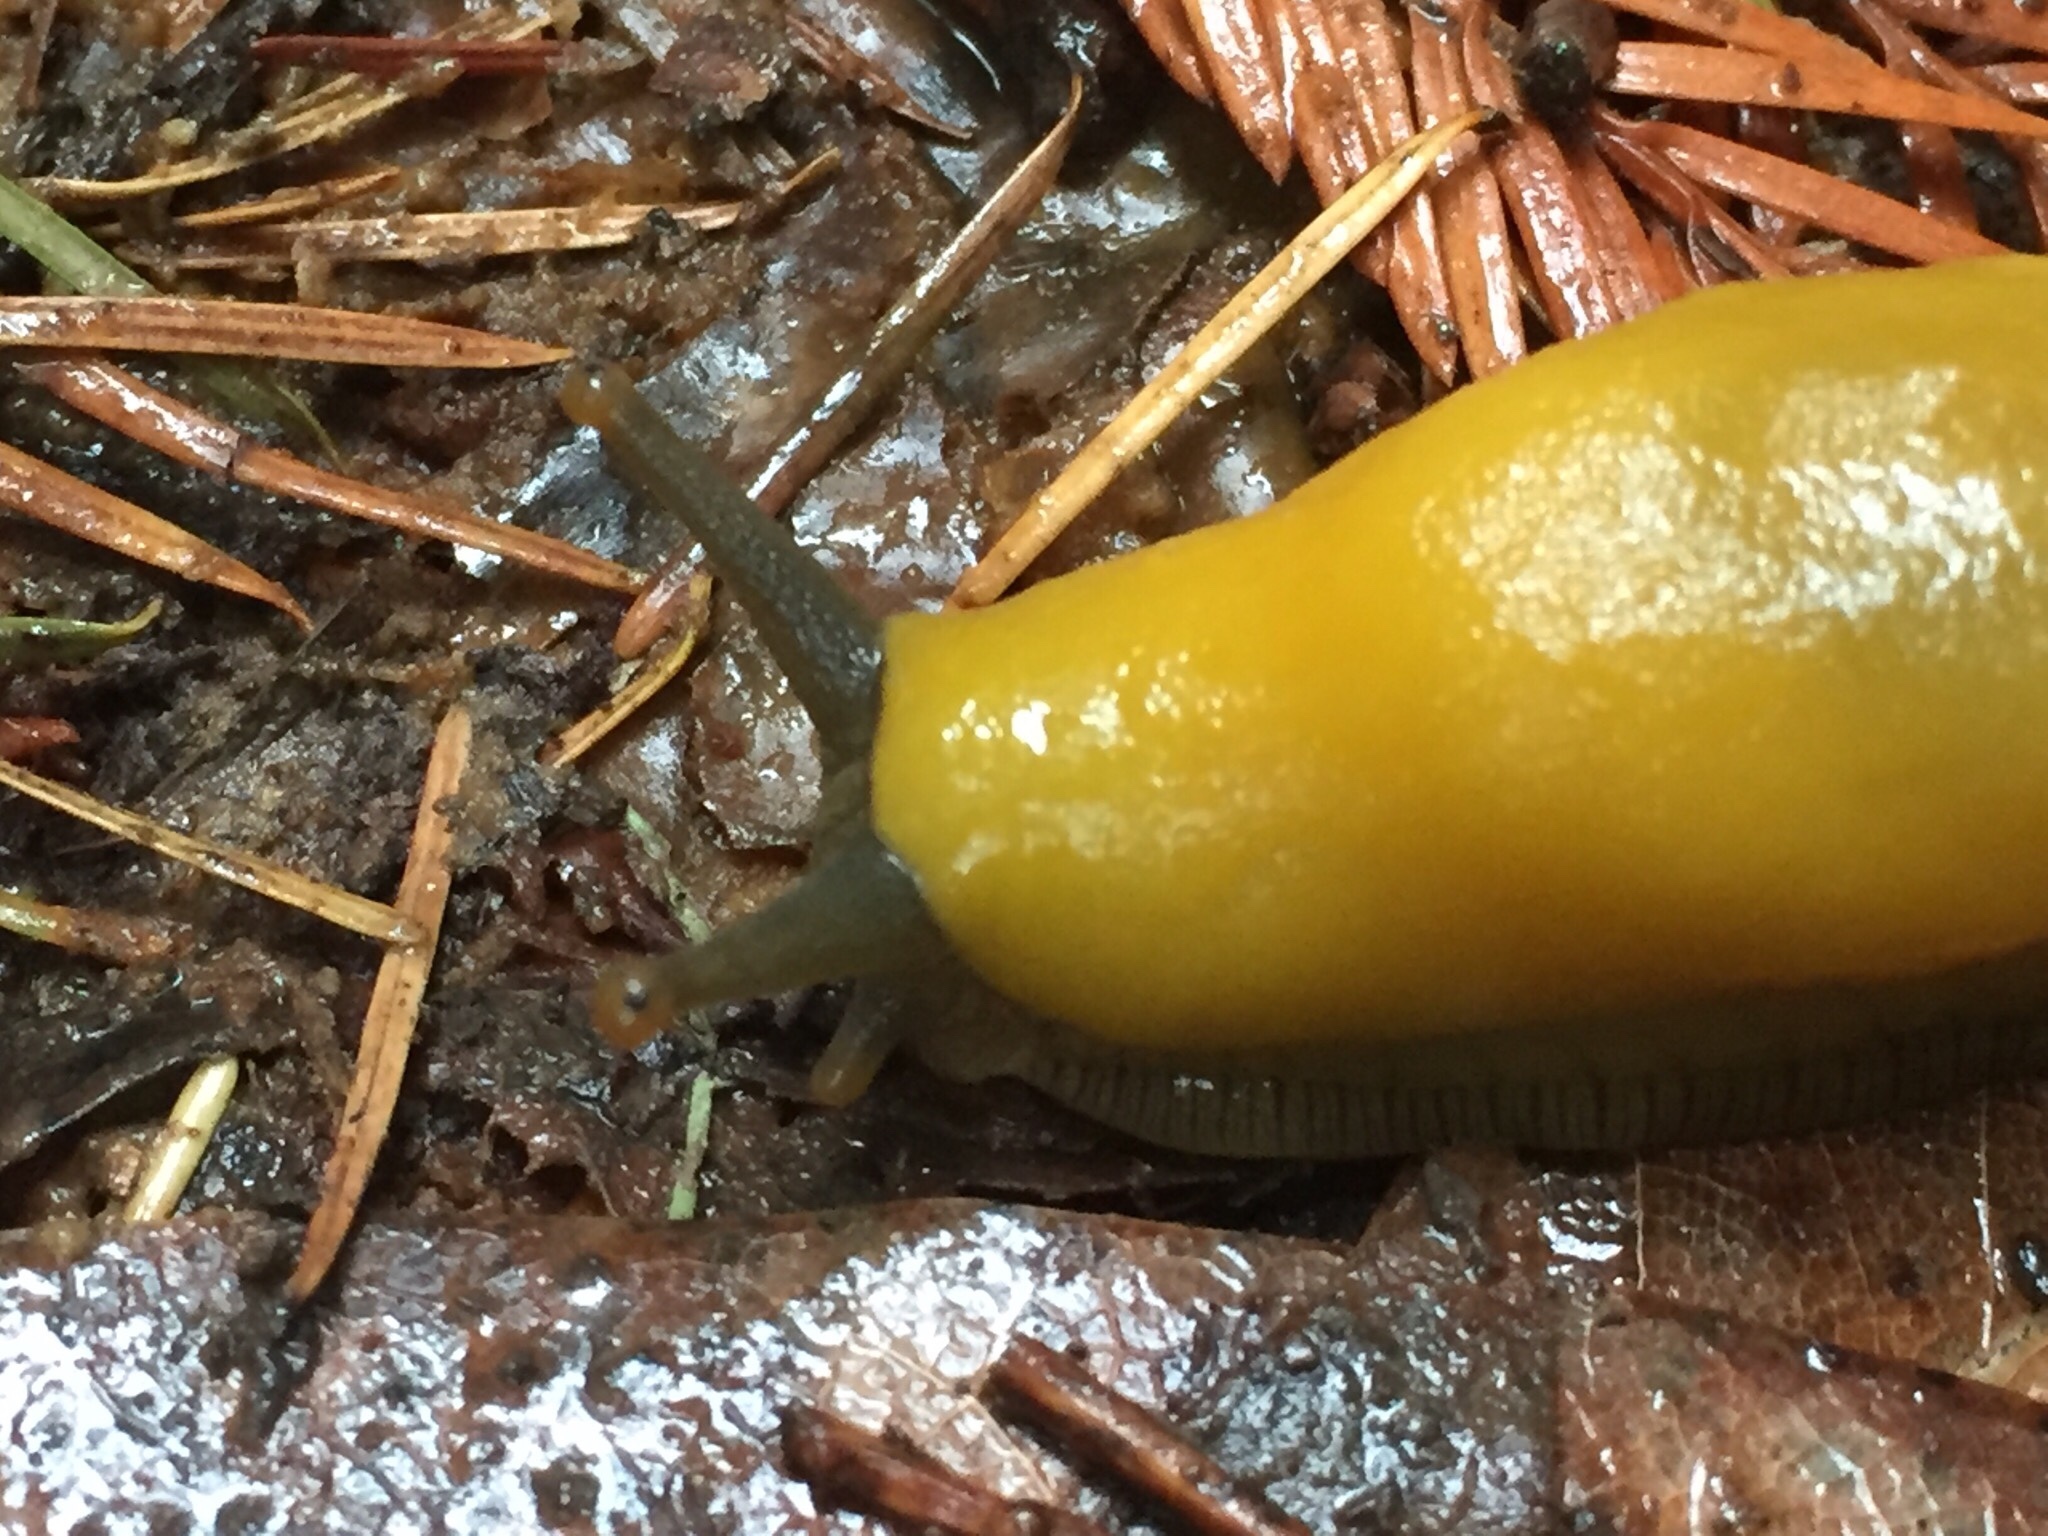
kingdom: Animalia
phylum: Mollusca
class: Gastropoda
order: Stylommatophora
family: Ariolimacidae
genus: Ariolimax
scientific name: Ariolimax californicus
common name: California banana slug
